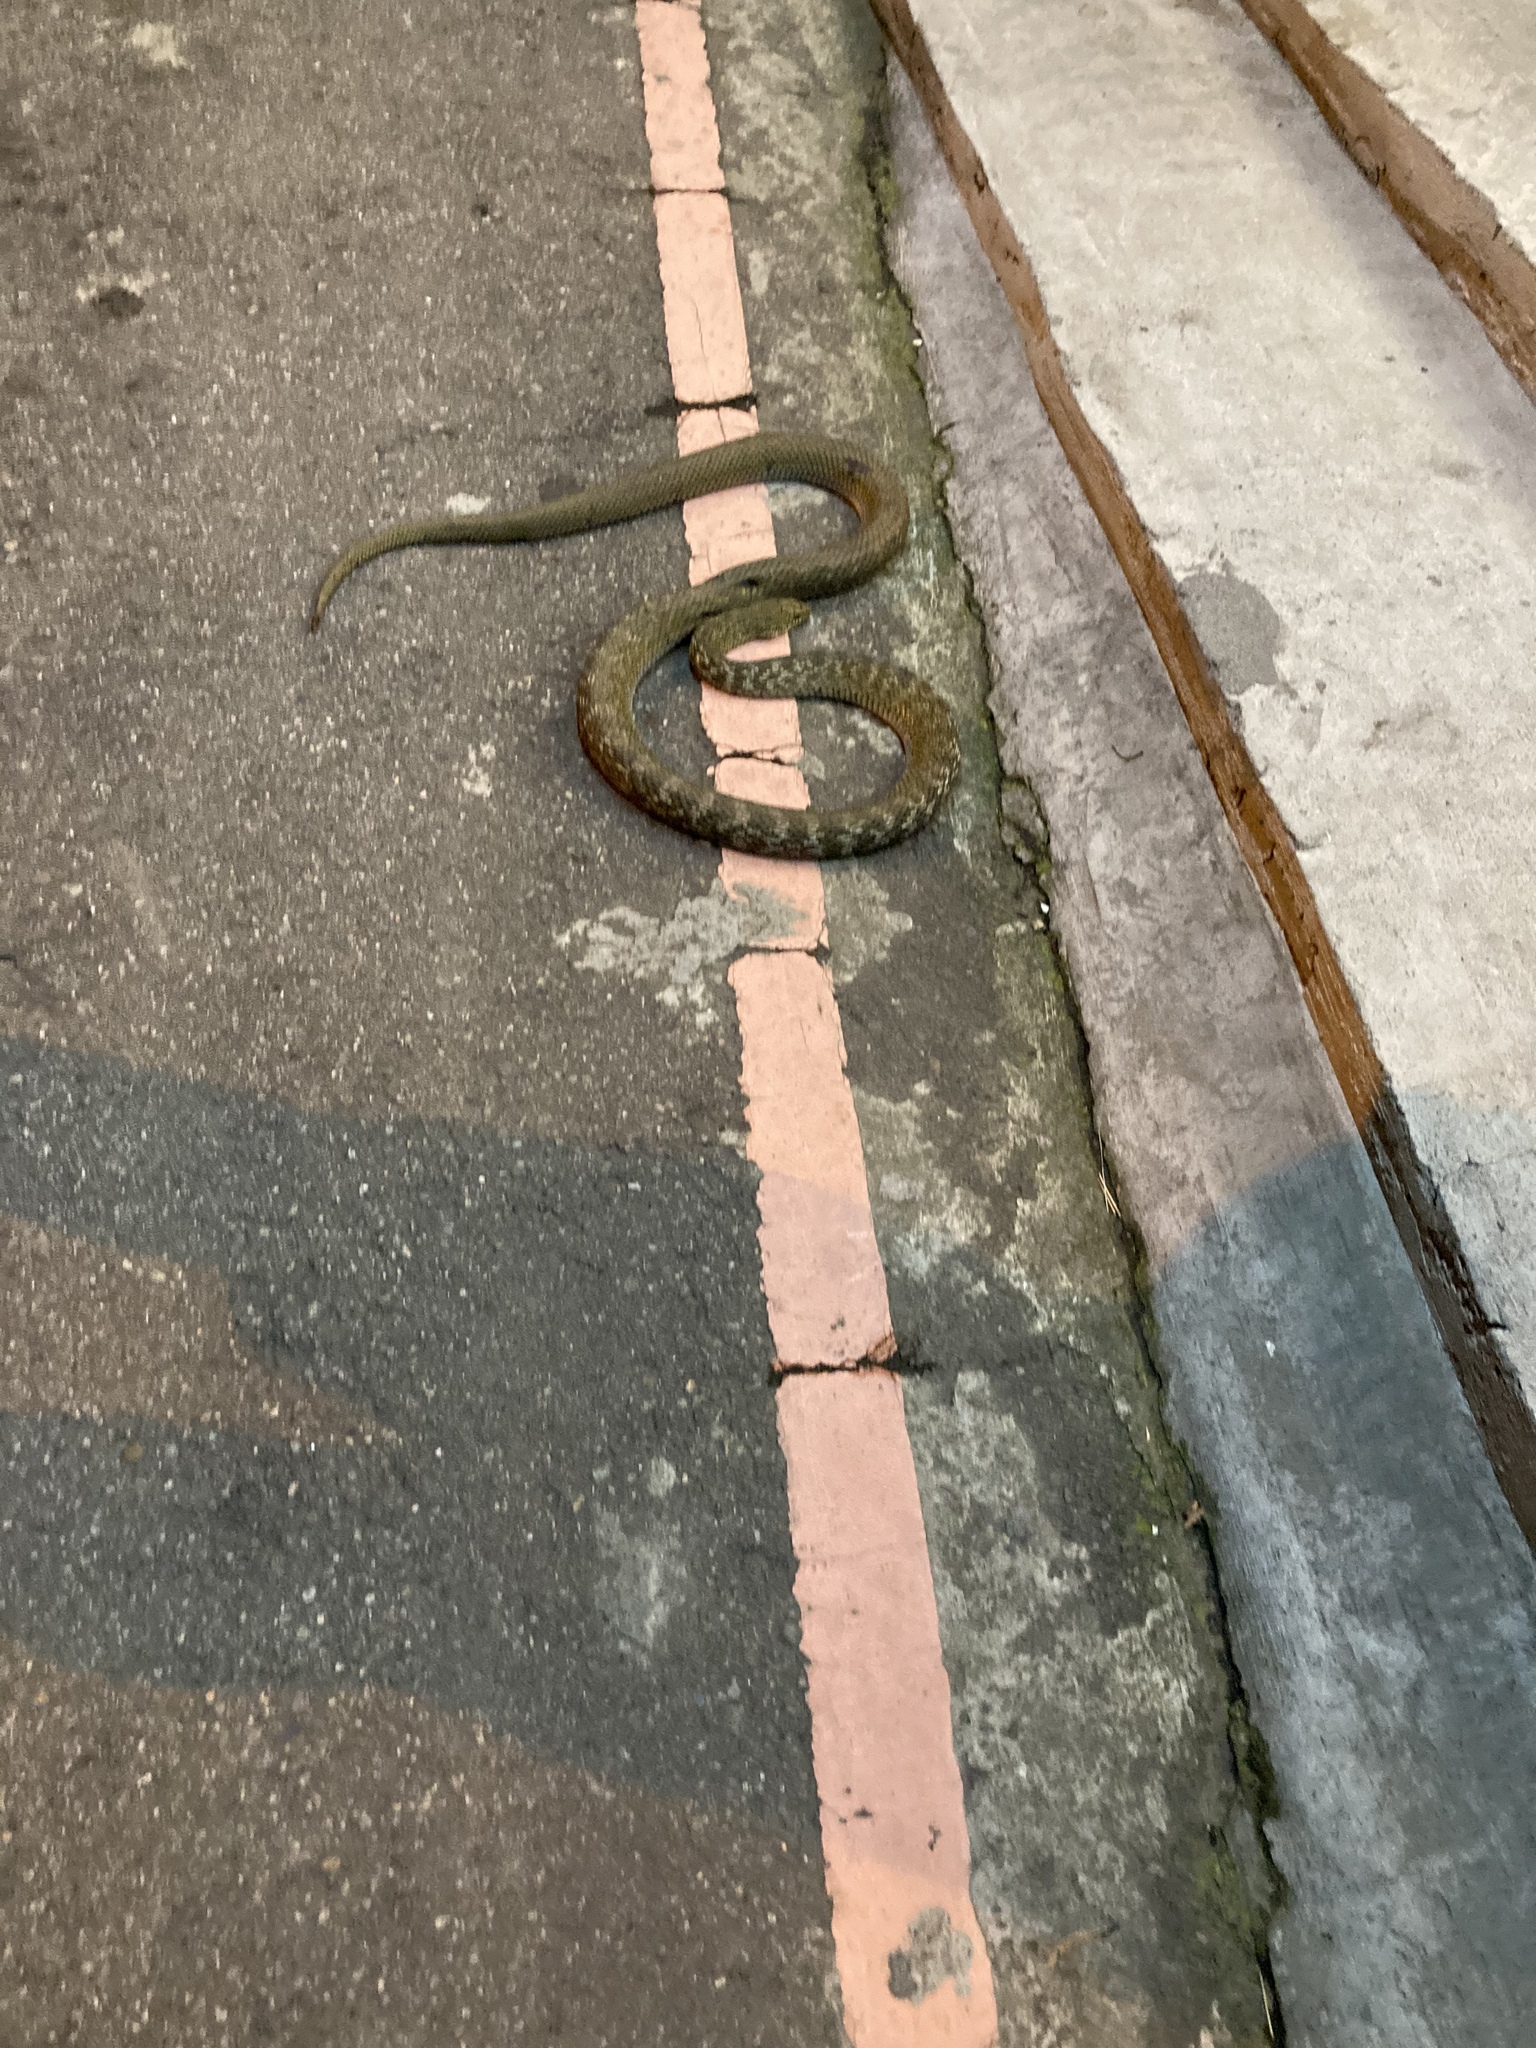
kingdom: Animalia
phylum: Chordata
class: Squamata
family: Colubridae
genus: Elaphe
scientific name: Elaphe carinata
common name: Taiwan stink snake
